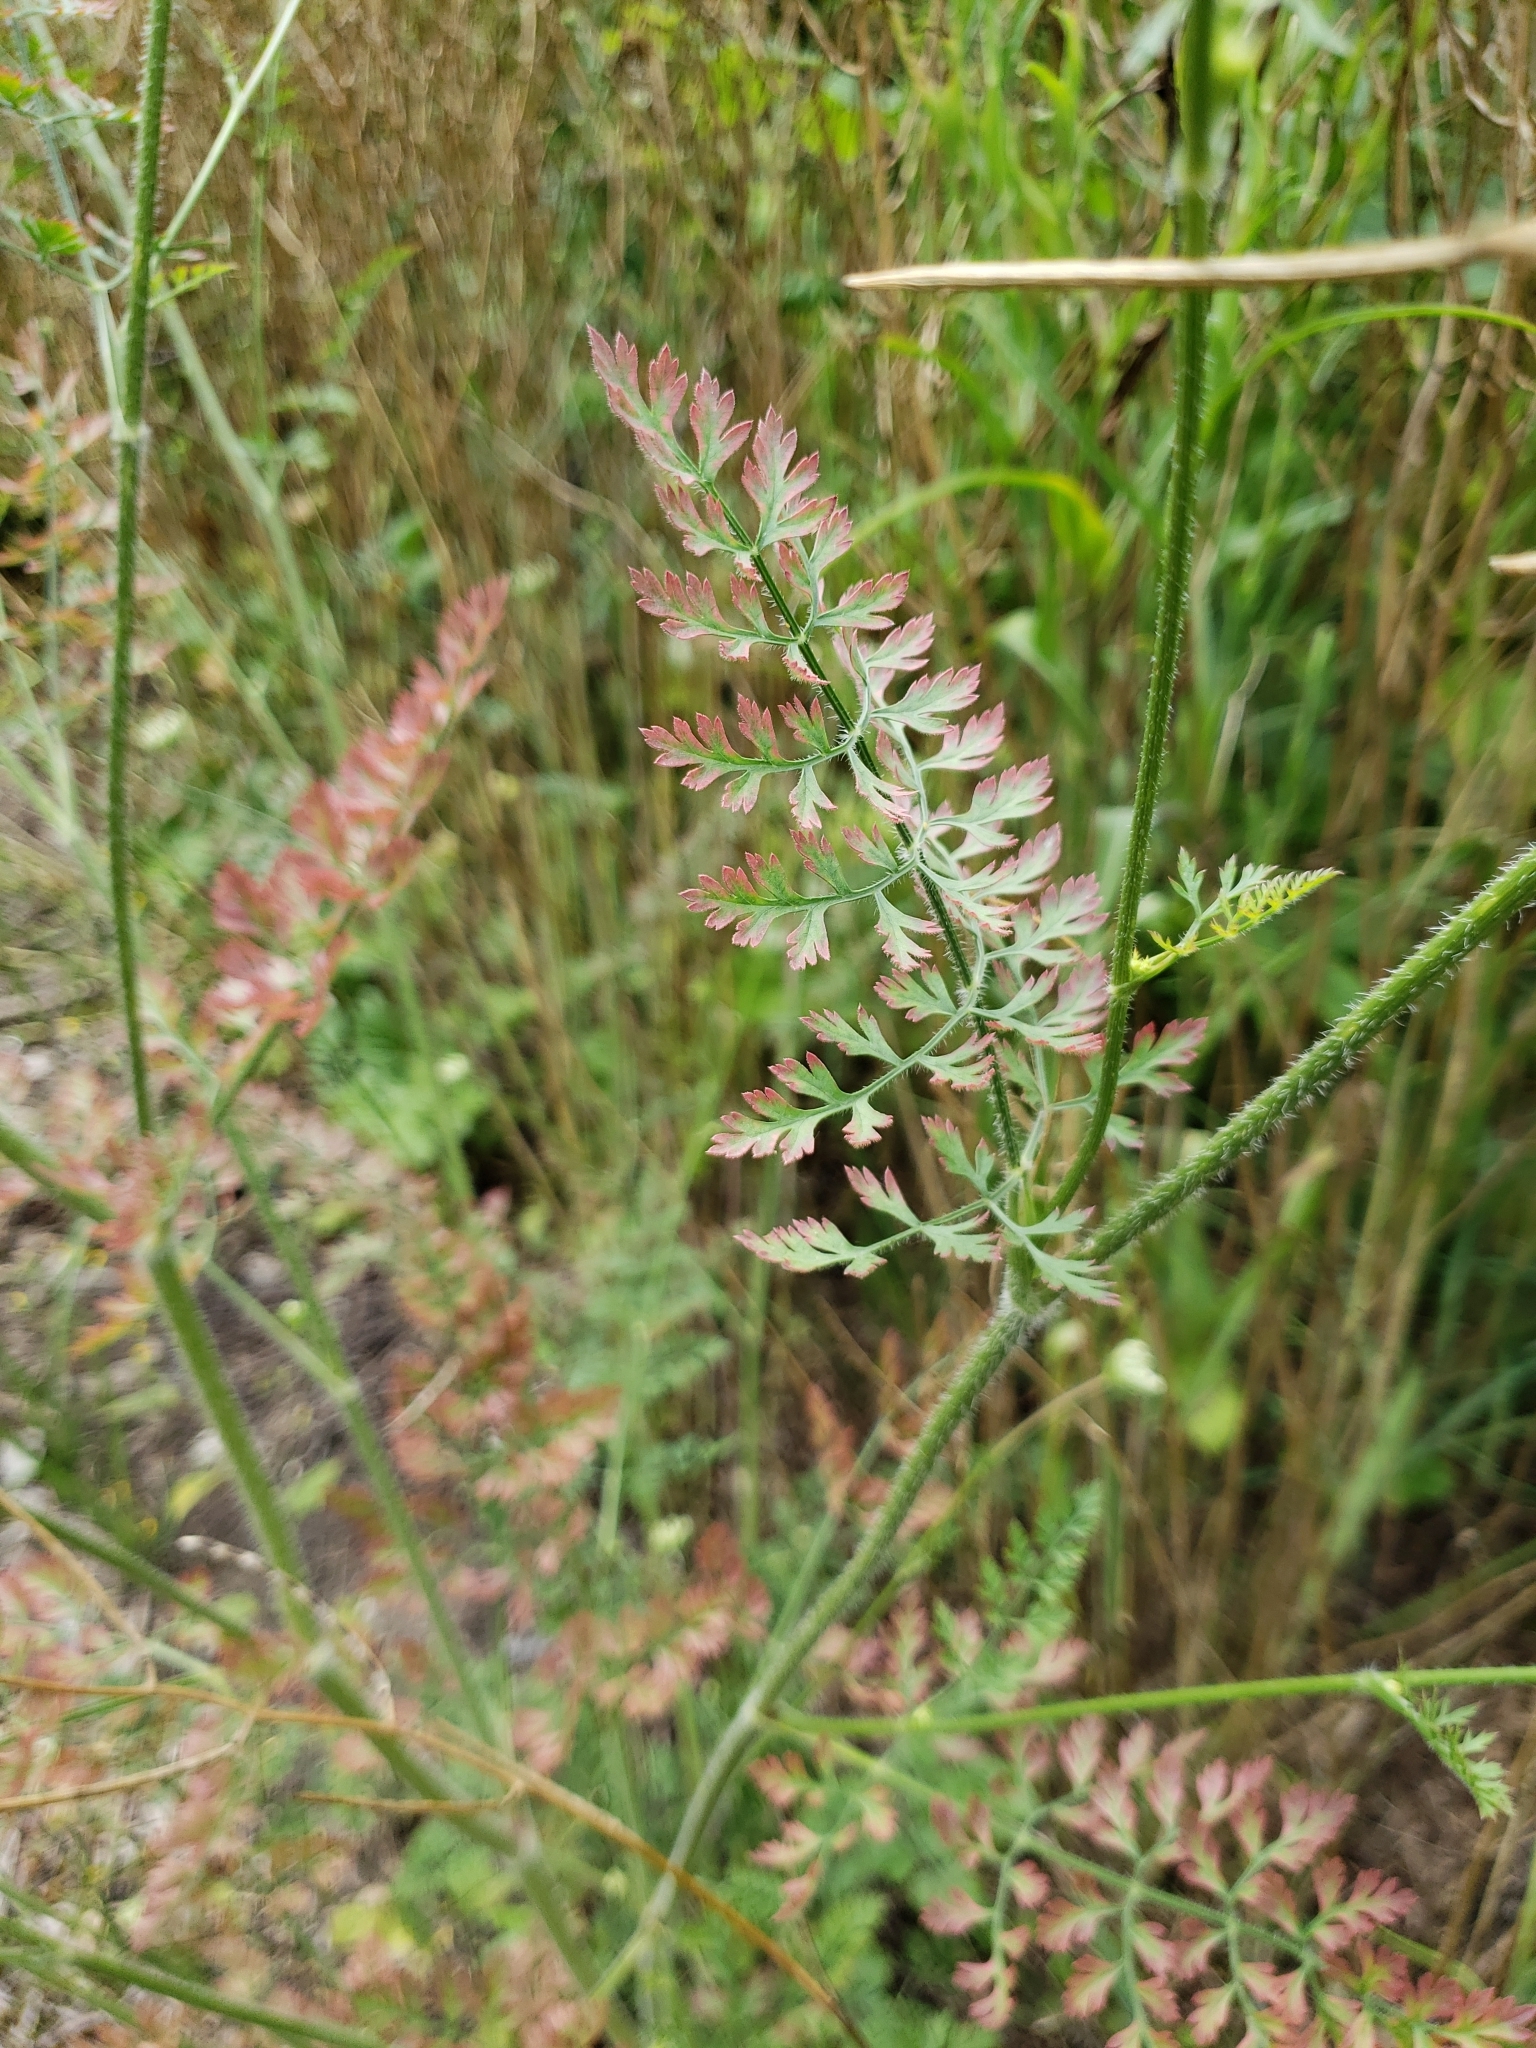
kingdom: Plantae
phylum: Tracheophyta
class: Magnoliopsida
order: Apiales
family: Apiaceae
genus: Daucus
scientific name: Daucus carota
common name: Wild carrot
